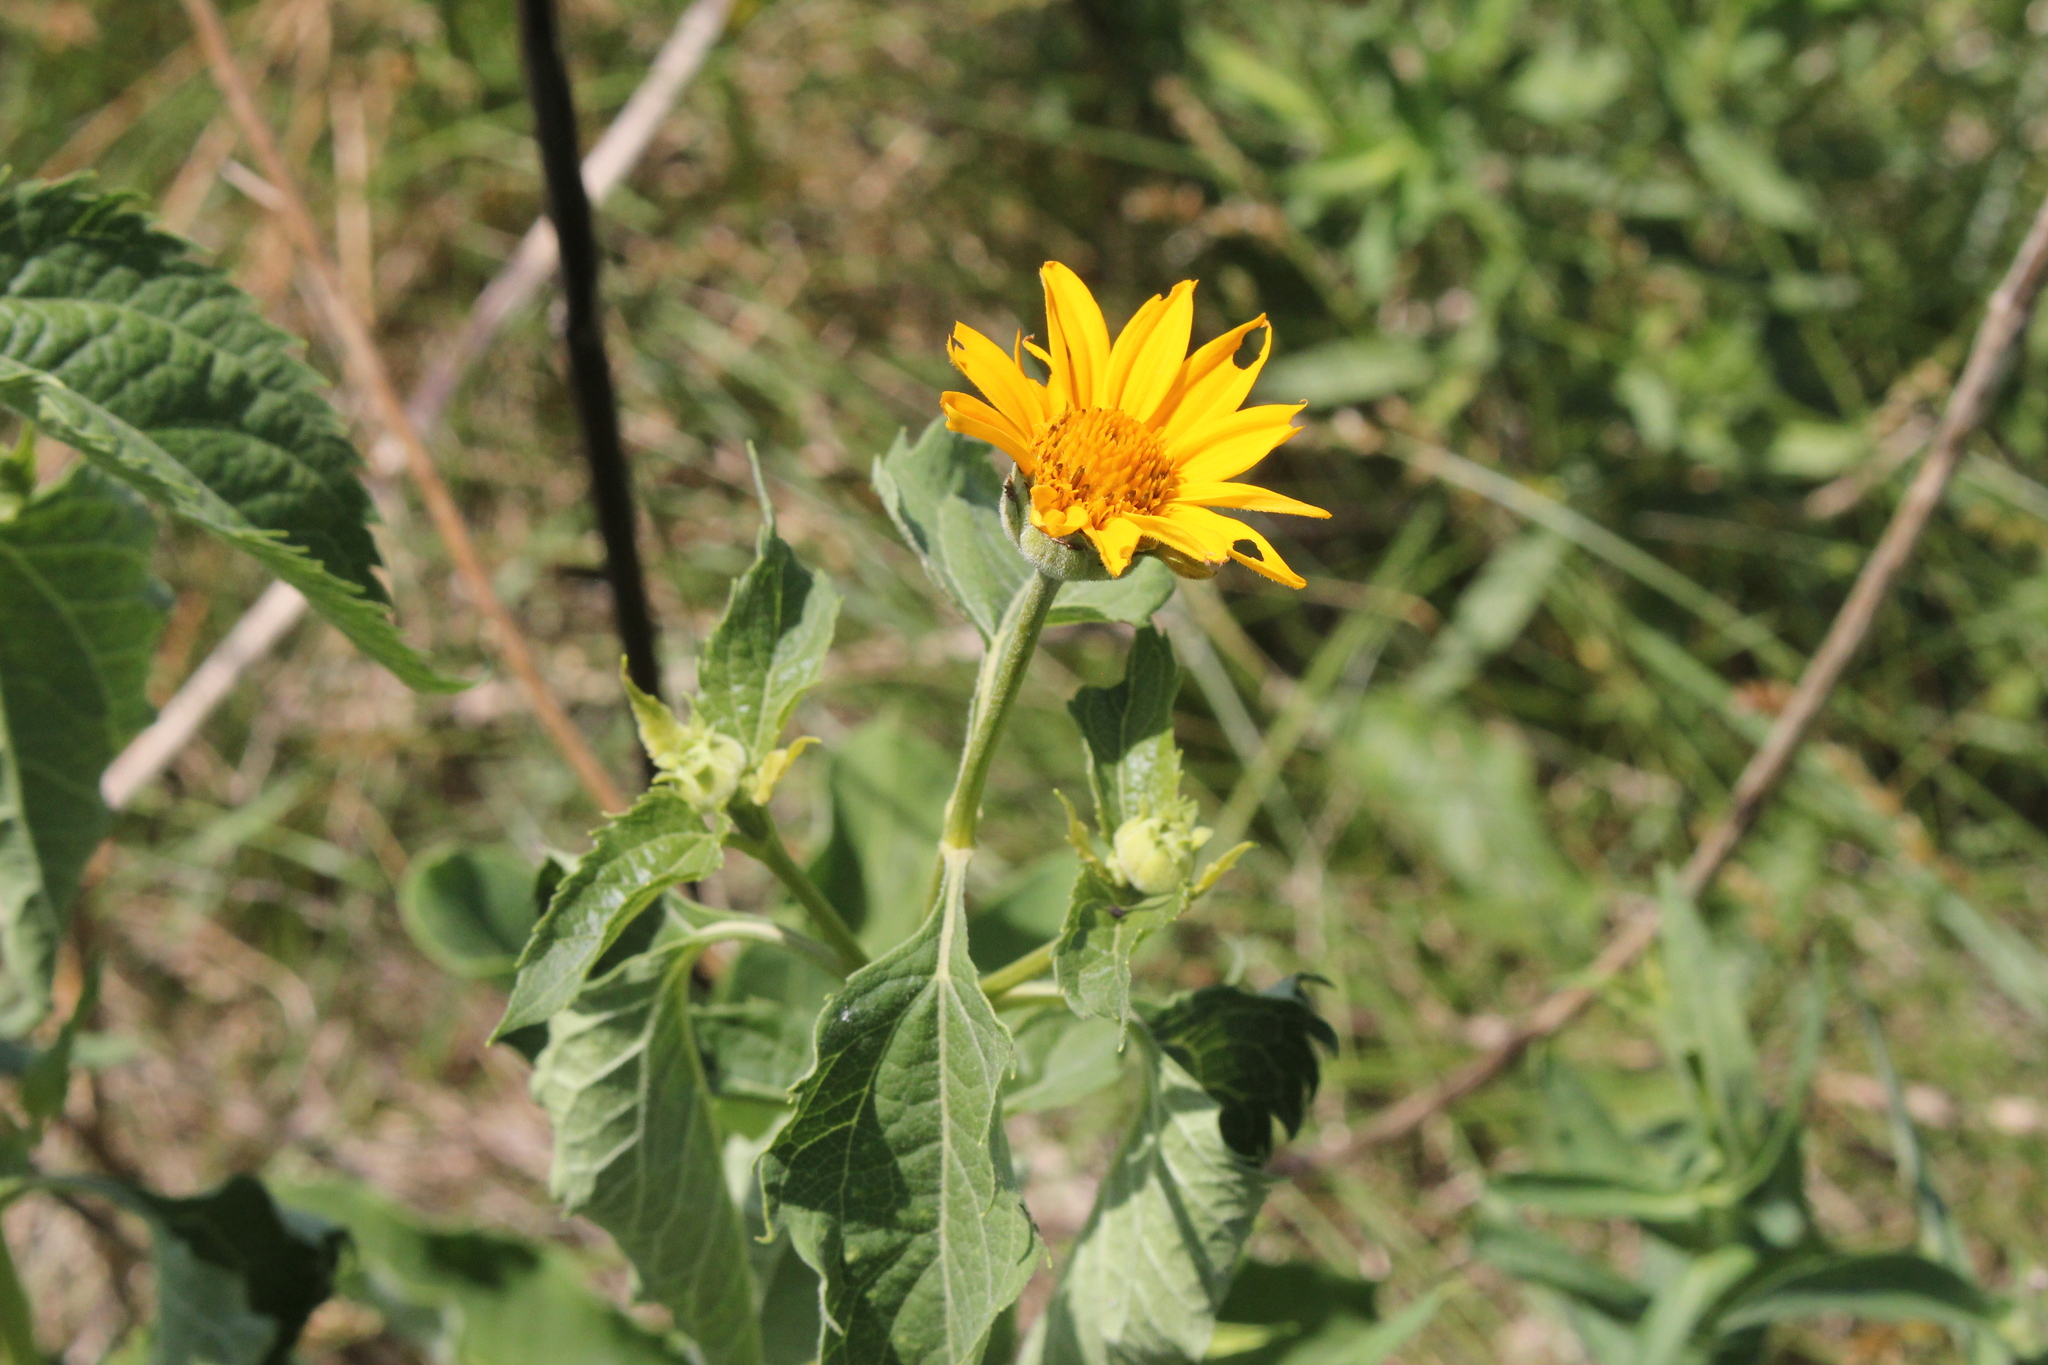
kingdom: Plantae
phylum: Tracheophyta
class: Magnoliopsida
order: Asterales
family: Asteraceae
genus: Heliopsis
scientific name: Heliopsis helianthoides
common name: False sunflower
